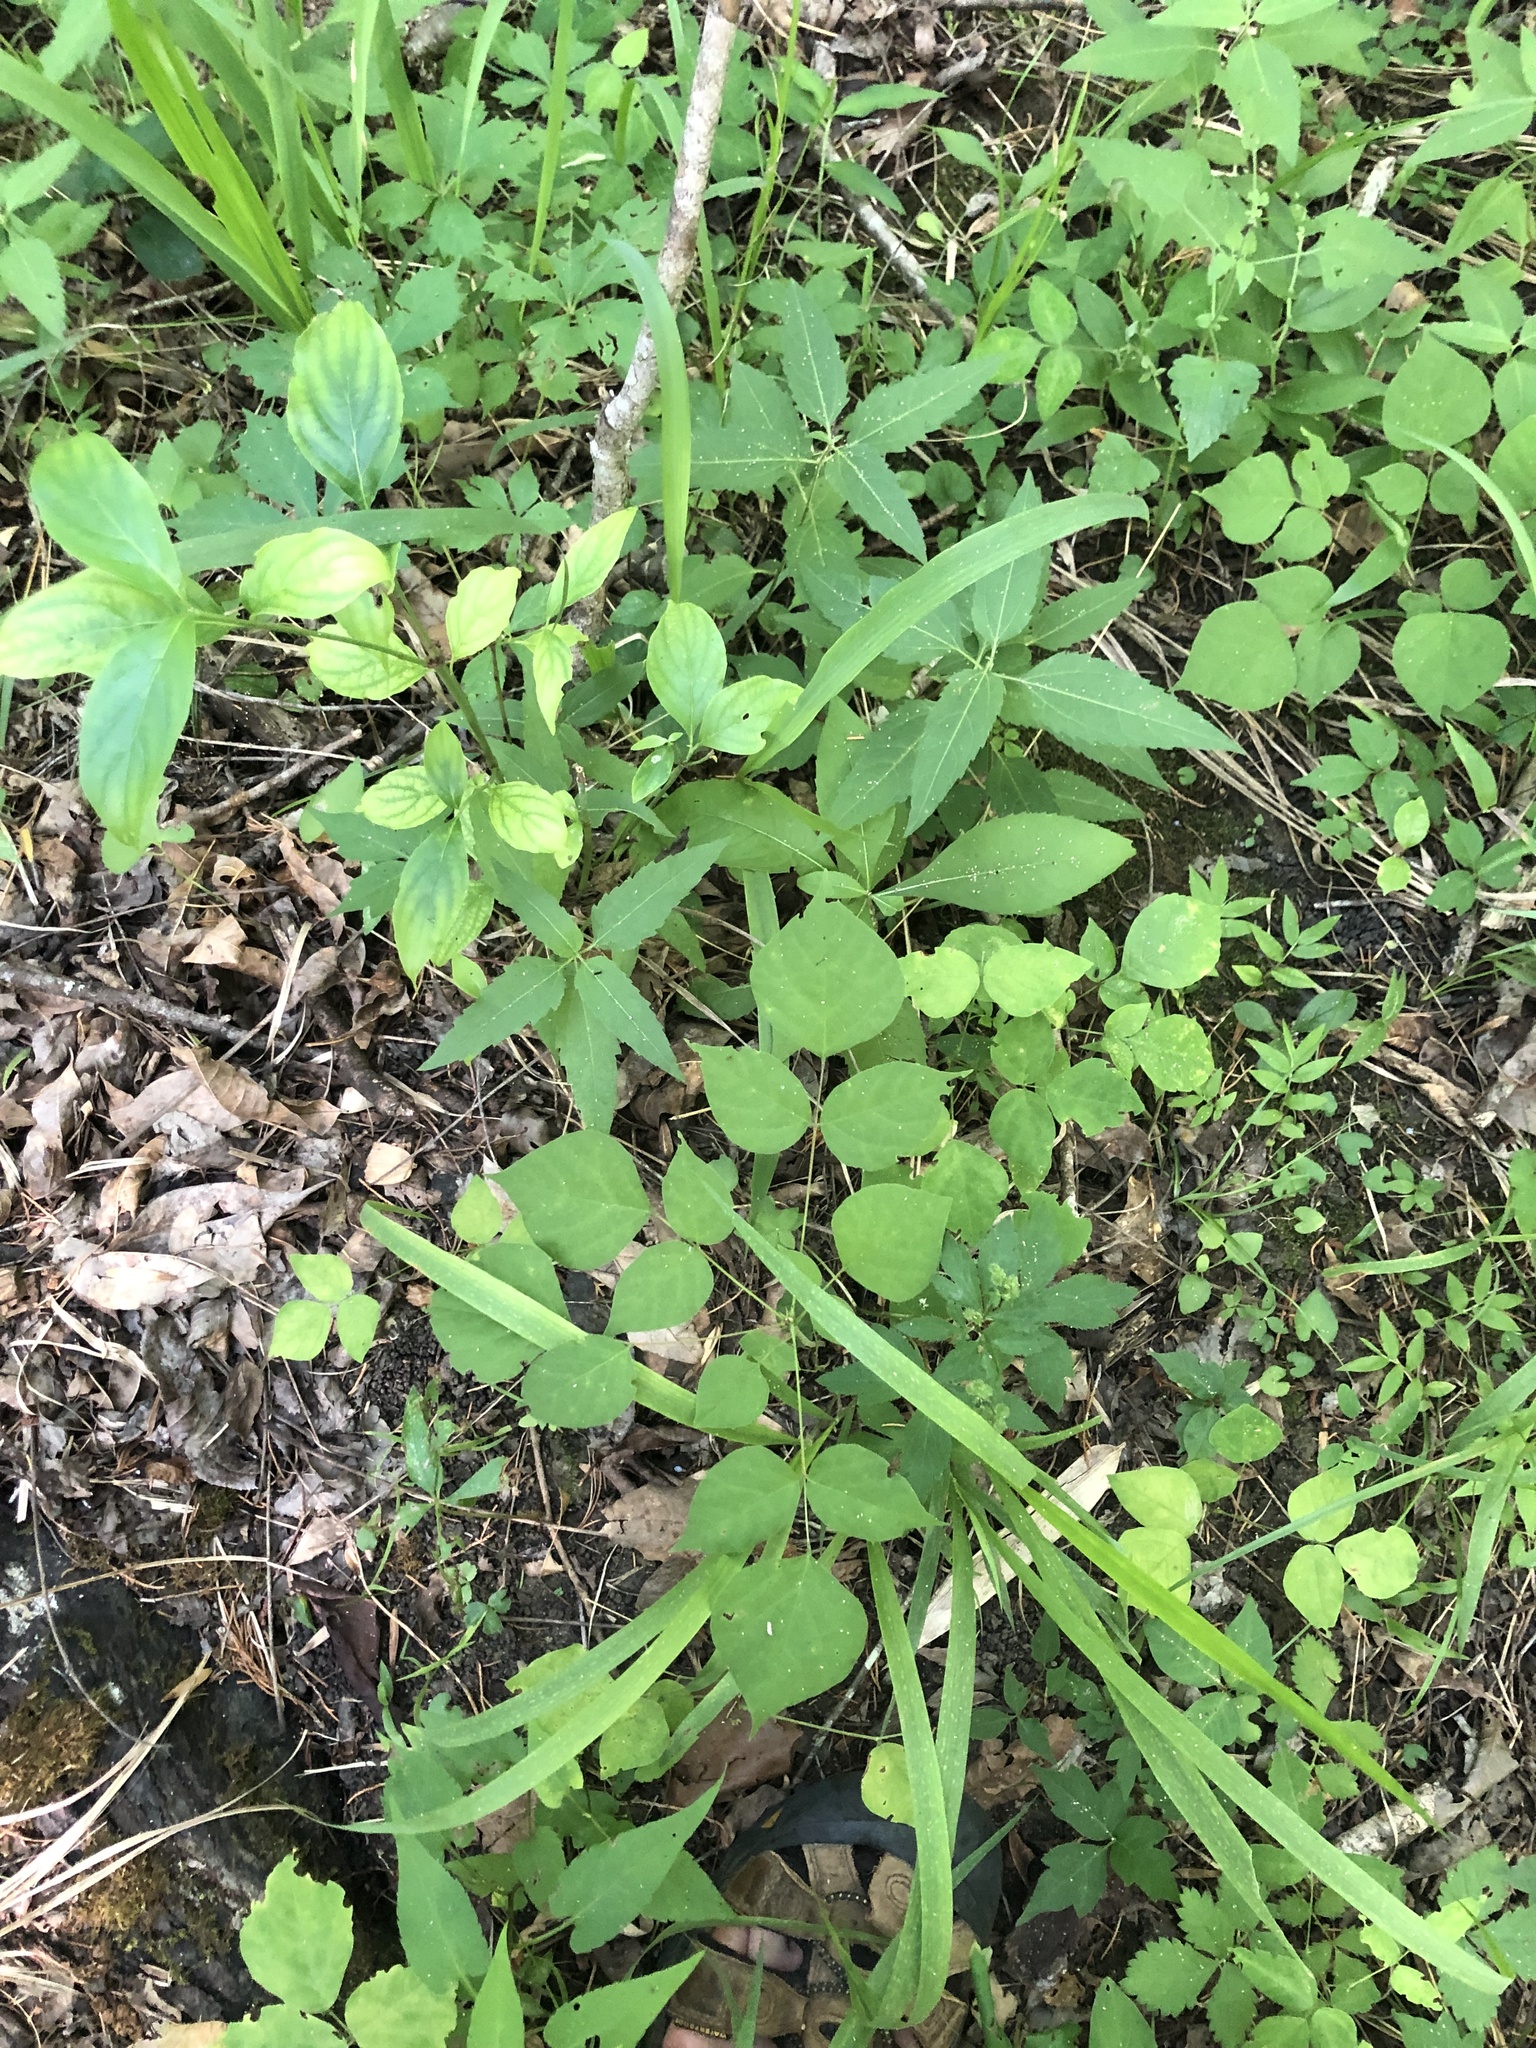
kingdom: Plantae
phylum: Tracheophyta
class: Magnoliopsida
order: Fabales
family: Fabaceae
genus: Hylodesmum
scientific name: Hylodesmum glutinosum
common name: Clustered-leaved tick-trefoil
